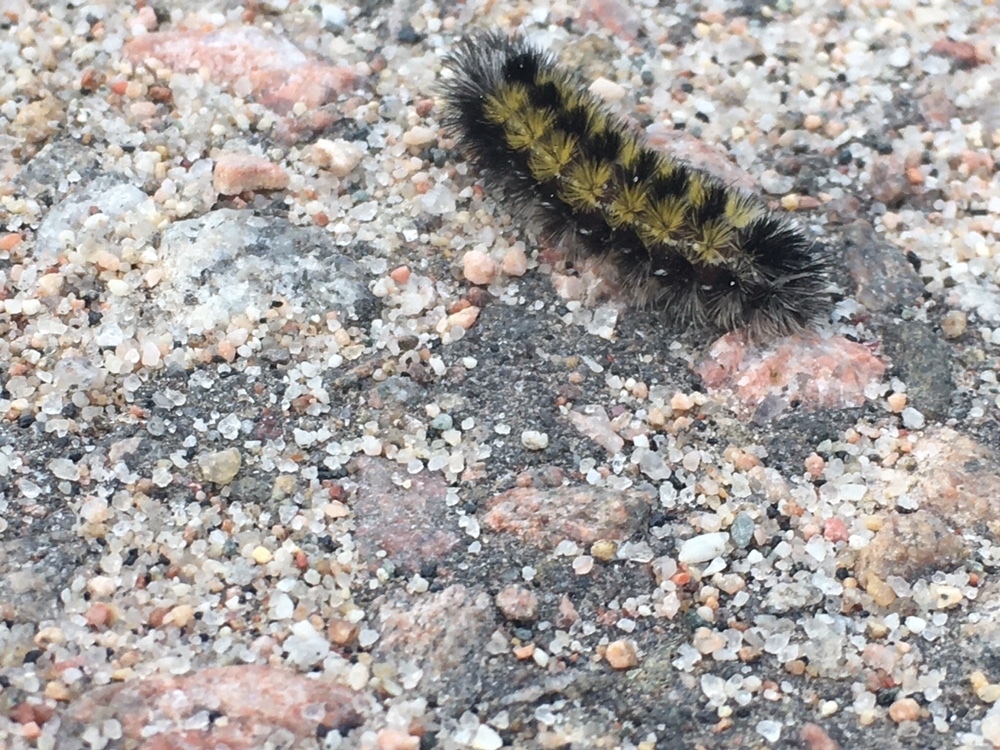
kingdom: Animalia
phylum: Arthropoda
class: Insecta
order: Lepidoptera
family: Erebidae
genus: Ctenucha
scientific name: Ctenucha virginica
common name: Virginia ctenucha moth
